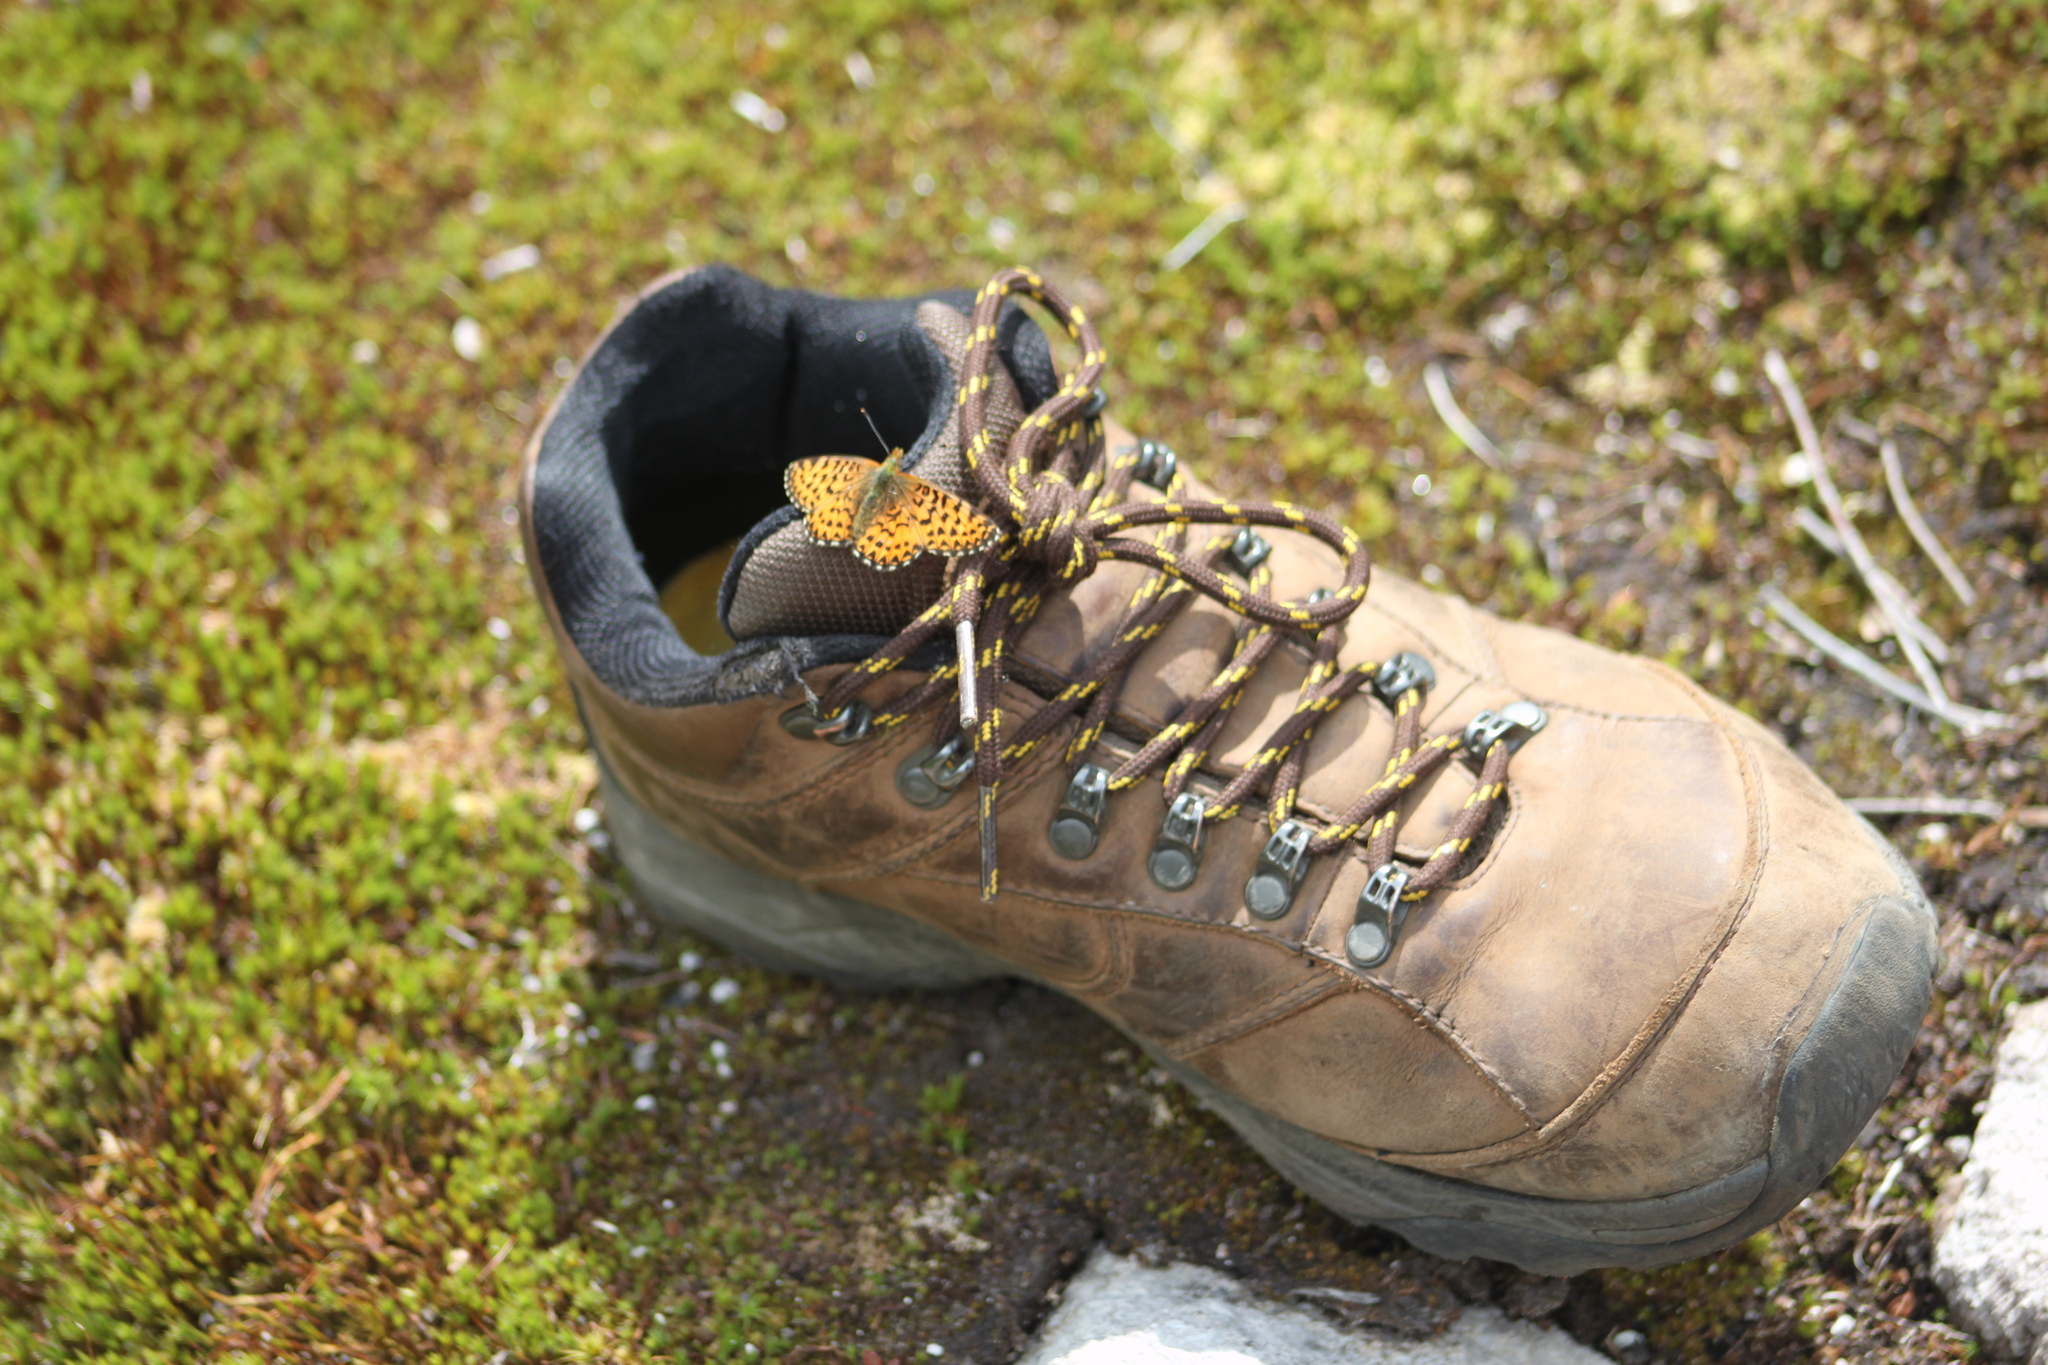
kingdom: Animalia
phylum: Arthropoda
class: Insecta
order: Lepidoptera
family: Nymphalidae
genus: Boloria
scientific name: Boloria chariclea
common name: Arctic fritillary
